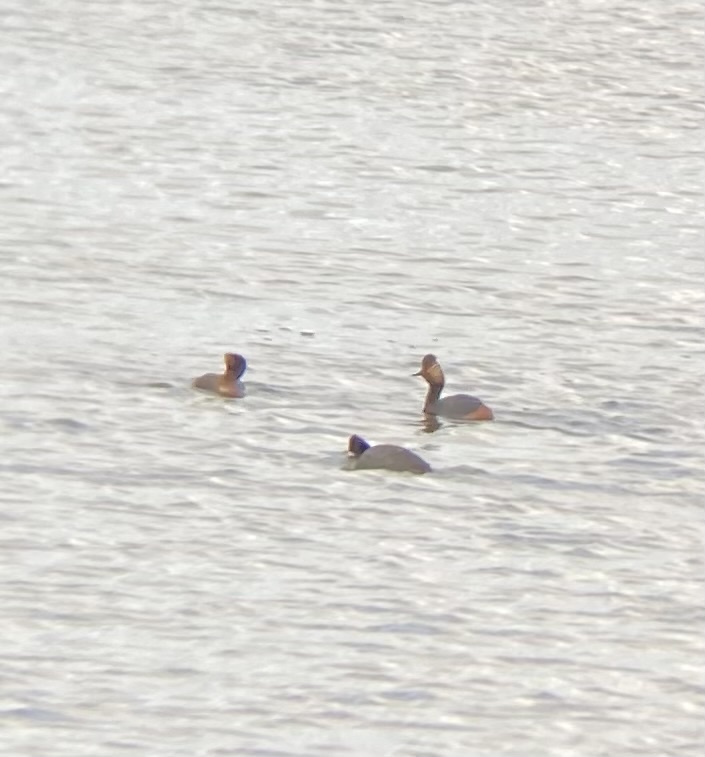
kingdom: Animalia
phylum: Chordata
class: Aves
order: Podicipediformes
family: Podicipedidae
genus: Podiceps
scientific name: Podiceps nigricollis
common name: Black-necked grebe
